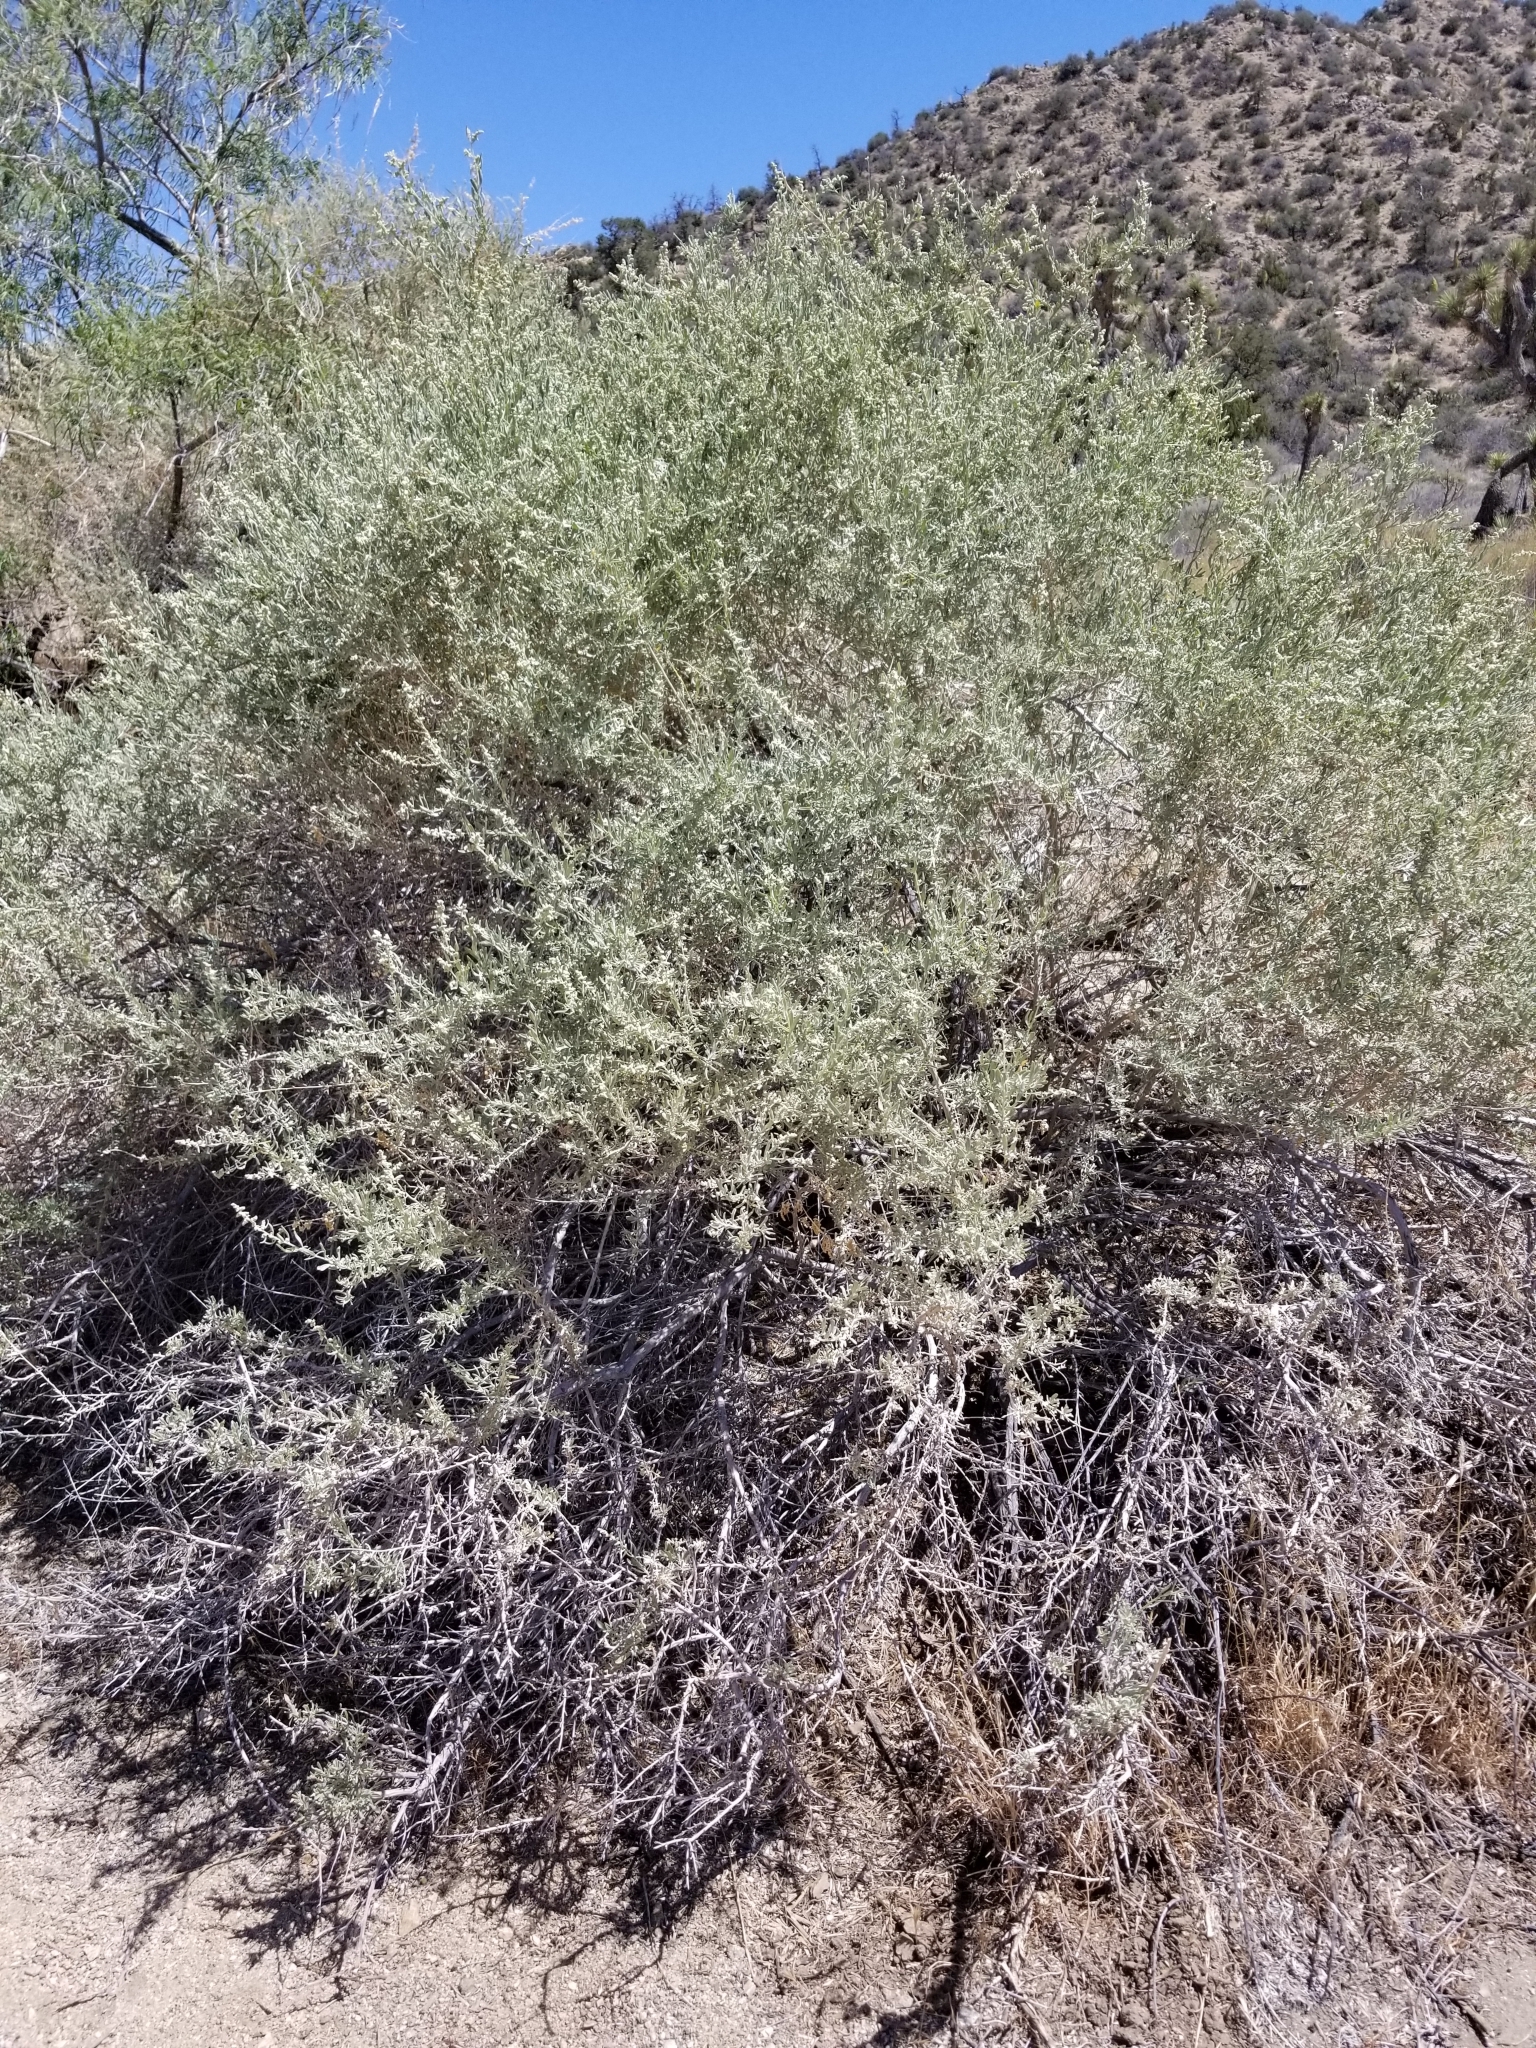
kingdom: Plantae
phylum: Tracheophyta
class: Magnoliopsida
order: Caryophyllales
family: Amaranthaceae
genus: Atriplex
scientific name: Atriplex canescens
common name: Four-wing saltbush
